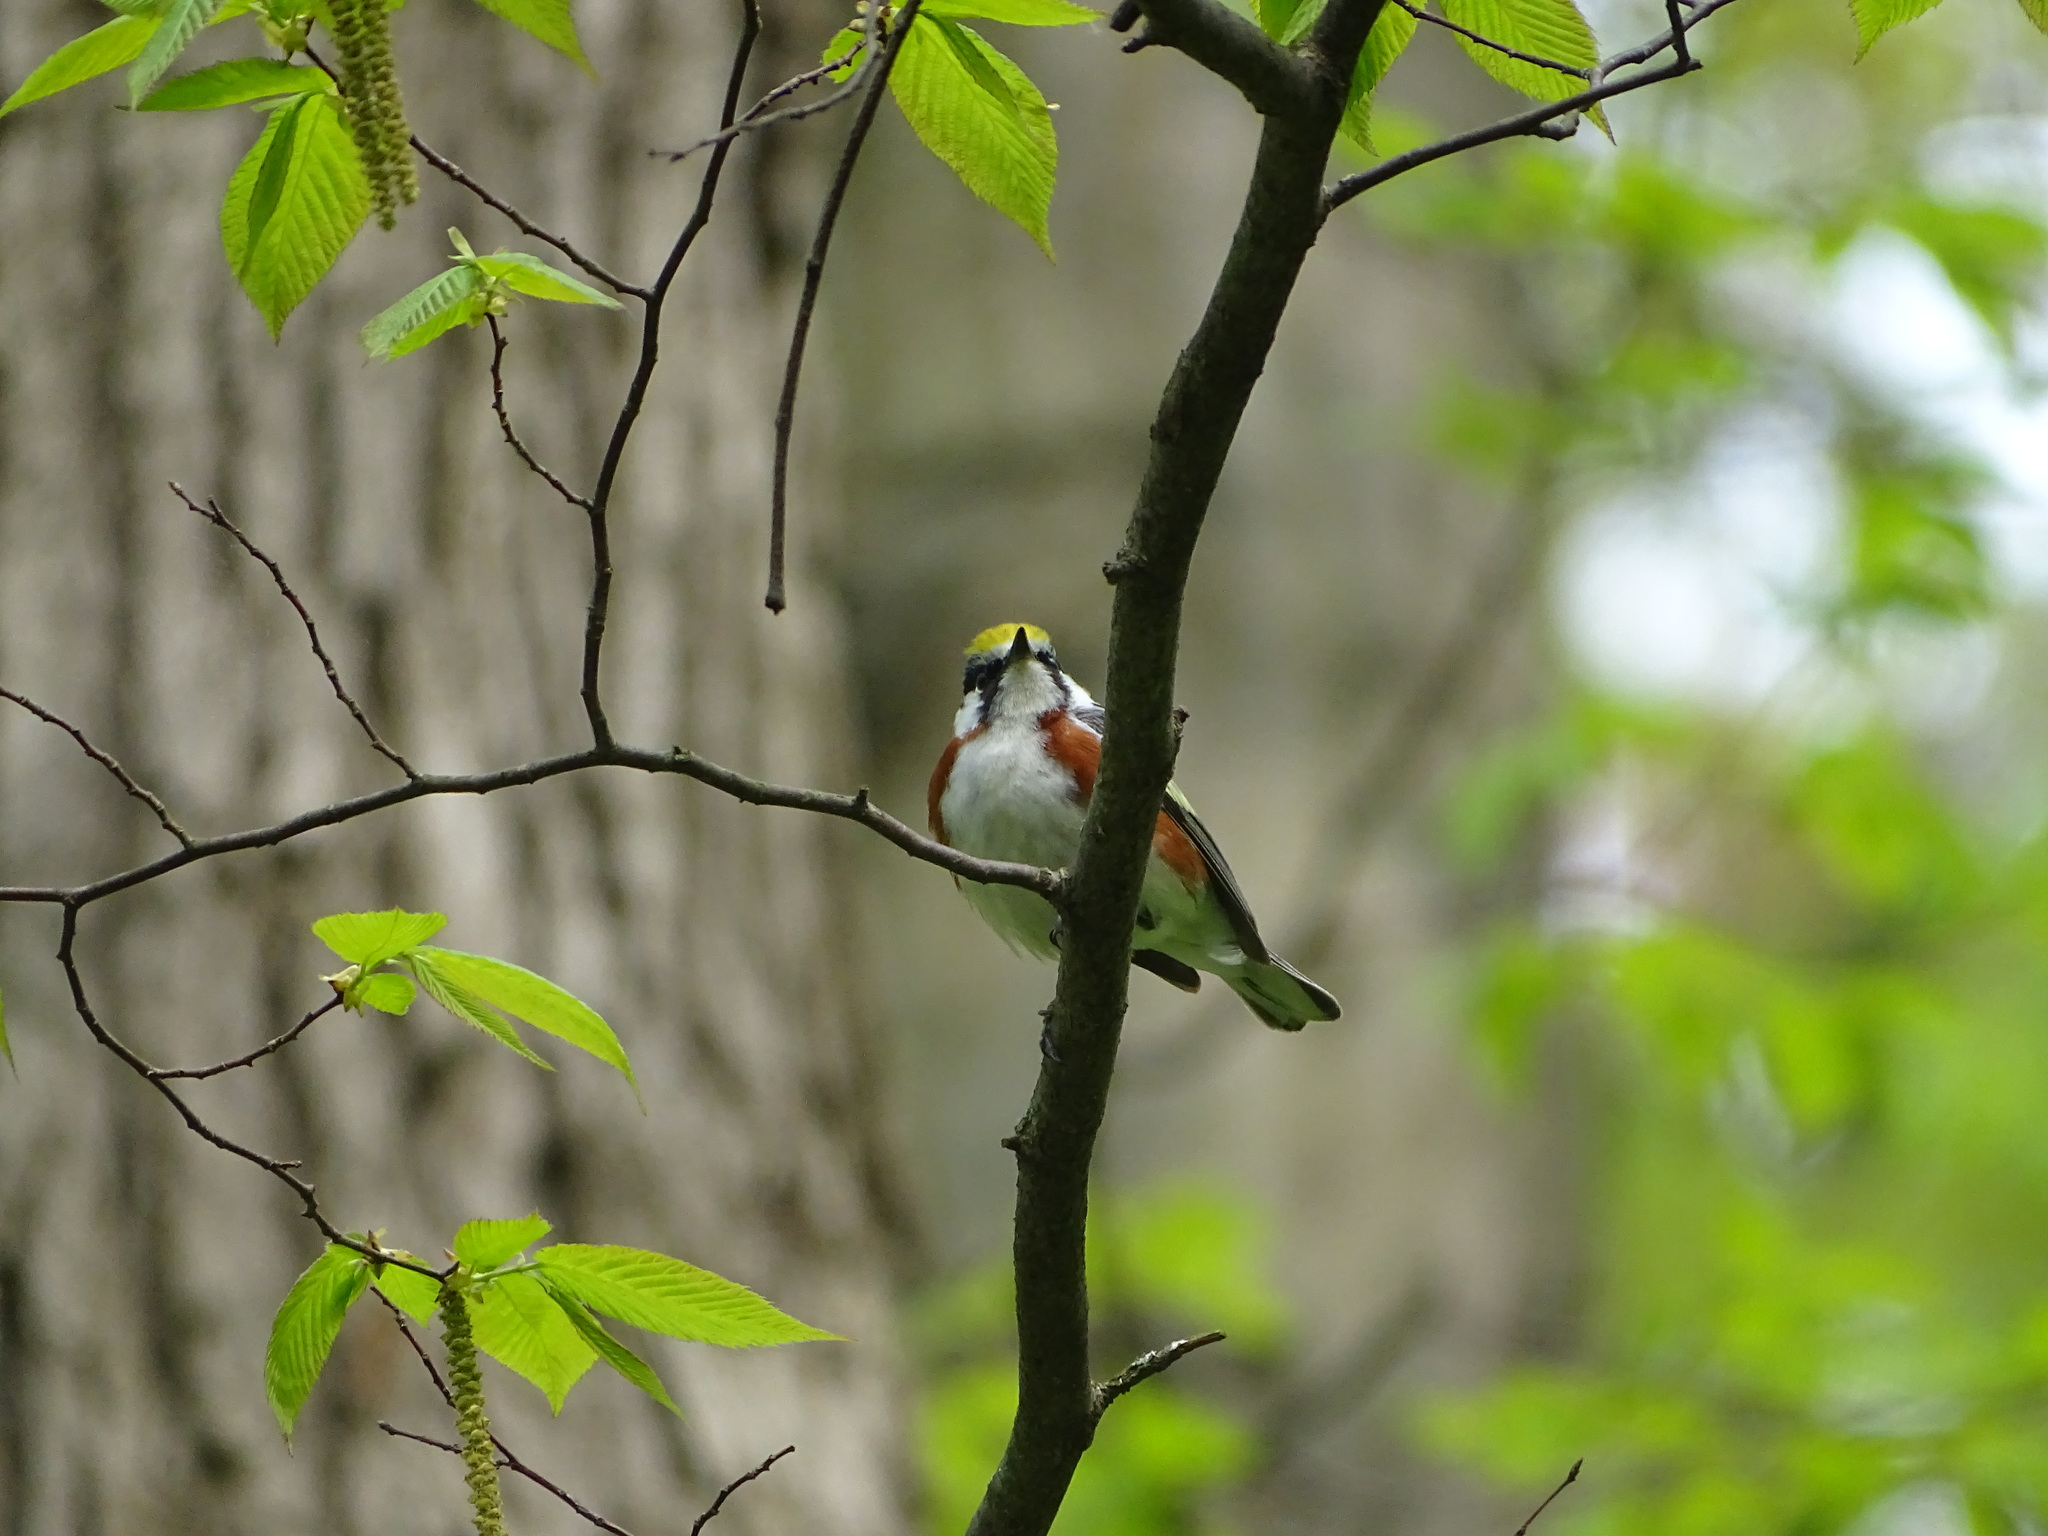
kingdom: Animalia
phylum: Chordata
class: Aves
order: Passeriformes
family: Parulidae
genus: Setophaga
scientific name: Setophaga pensylvanica
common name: Chestnut-sided warbler
